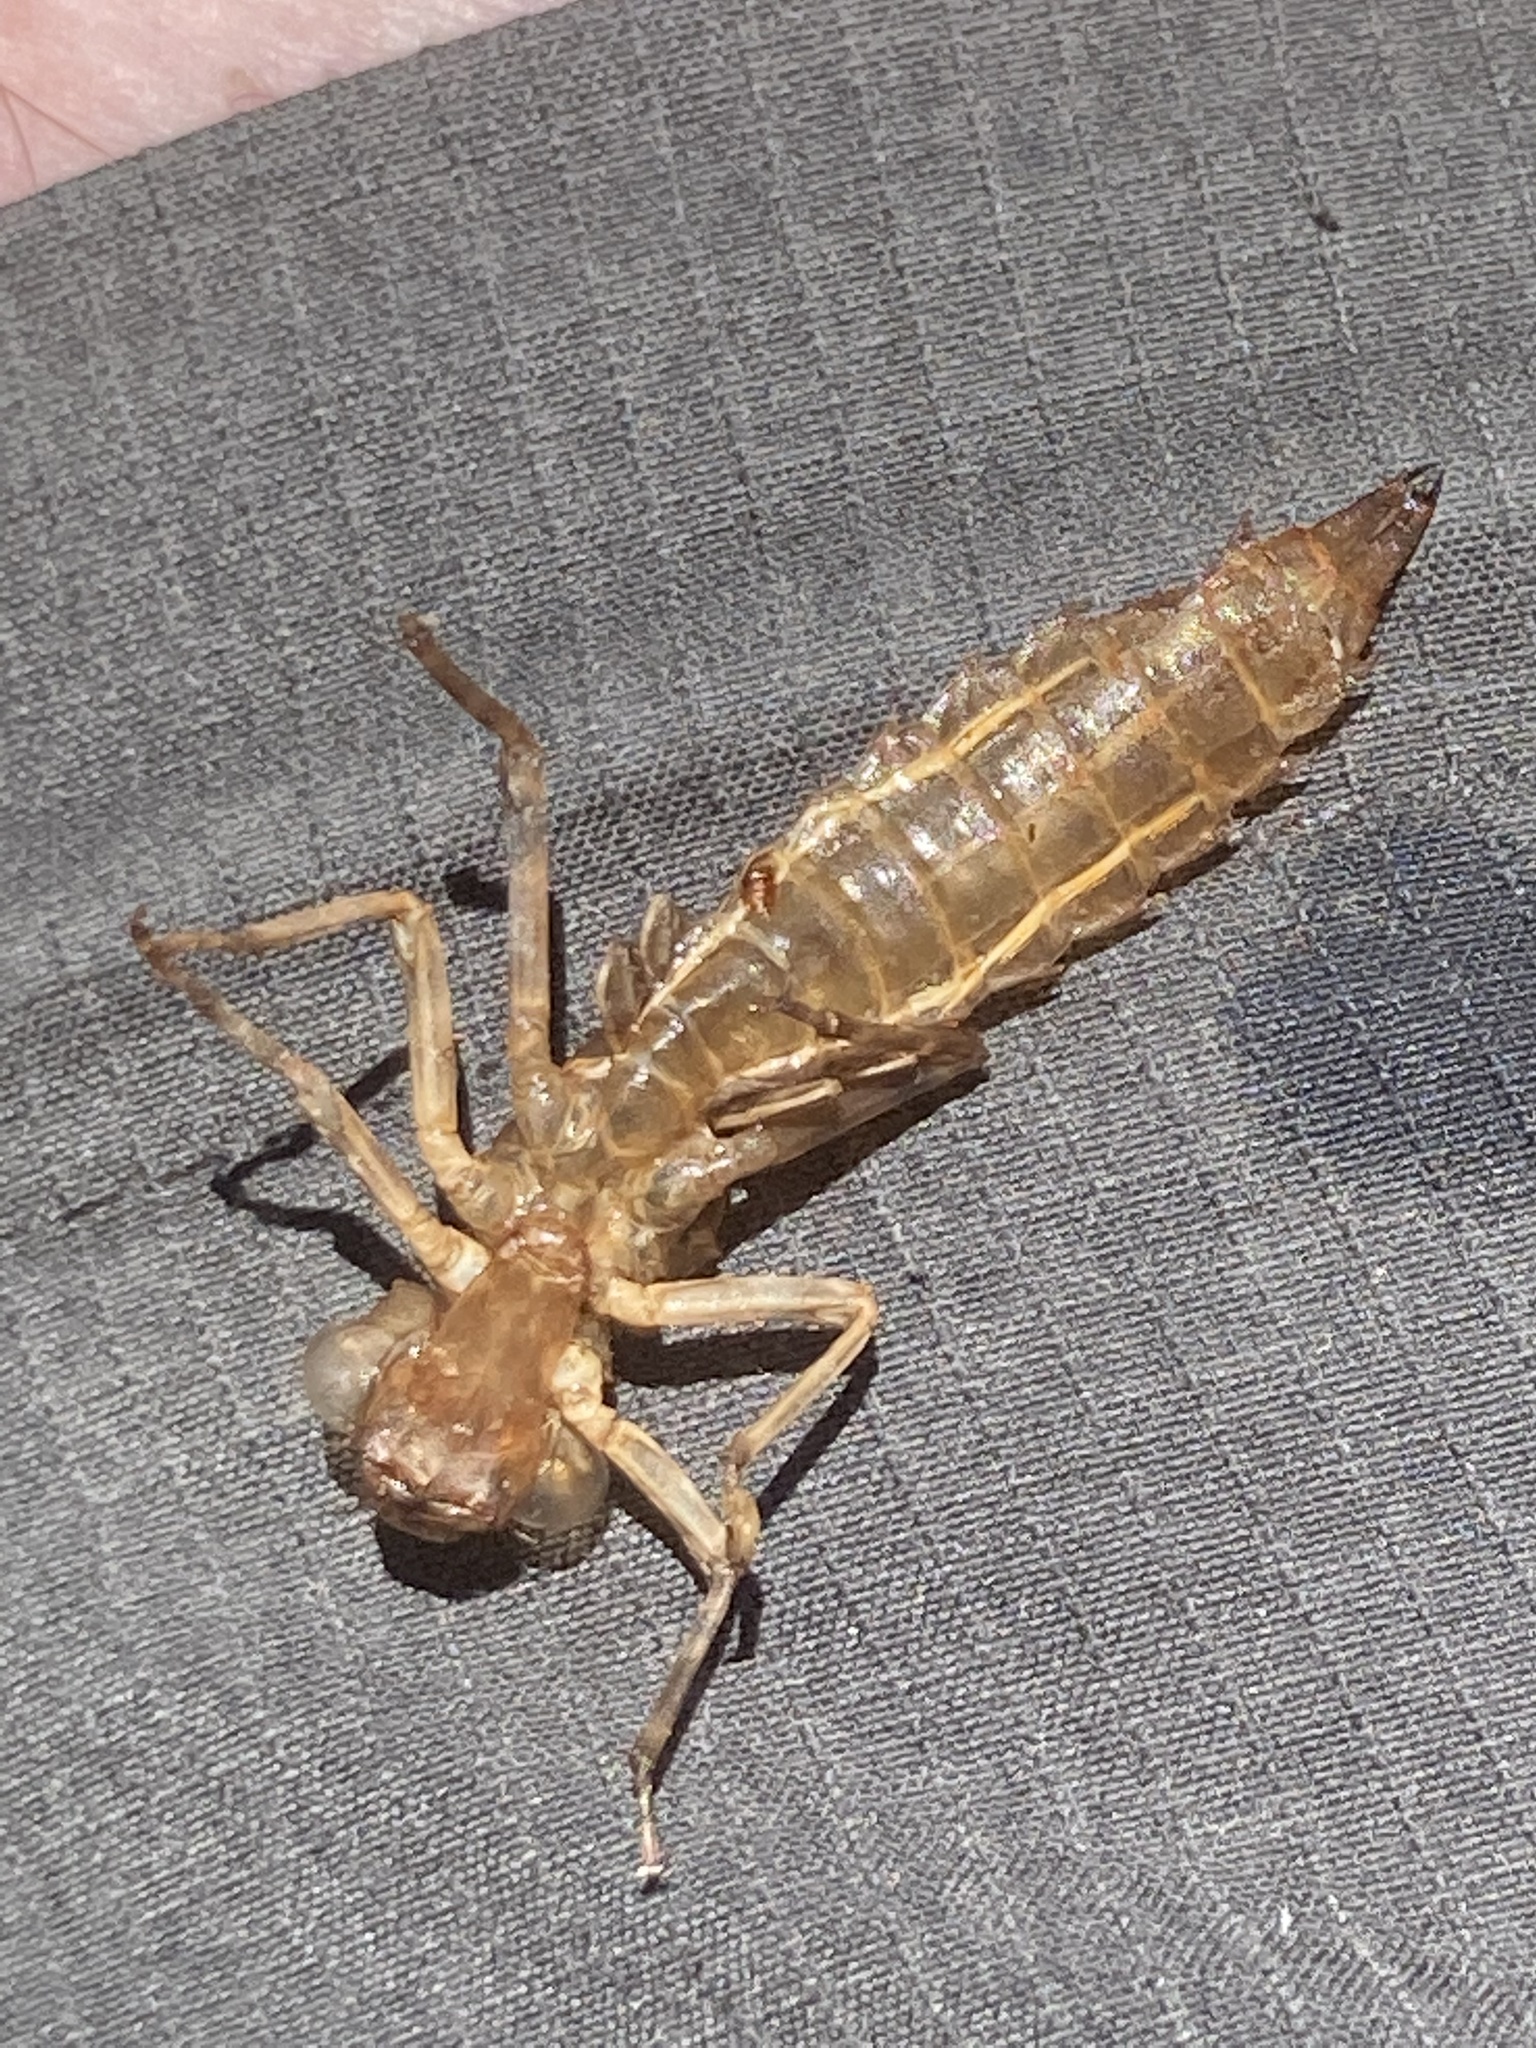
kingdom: Animalia
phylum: Arthropoda
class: Insecta
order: Odonata
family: Aeshnidae
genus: Boyeria
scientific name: Boyeria irene
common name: Western spectre
